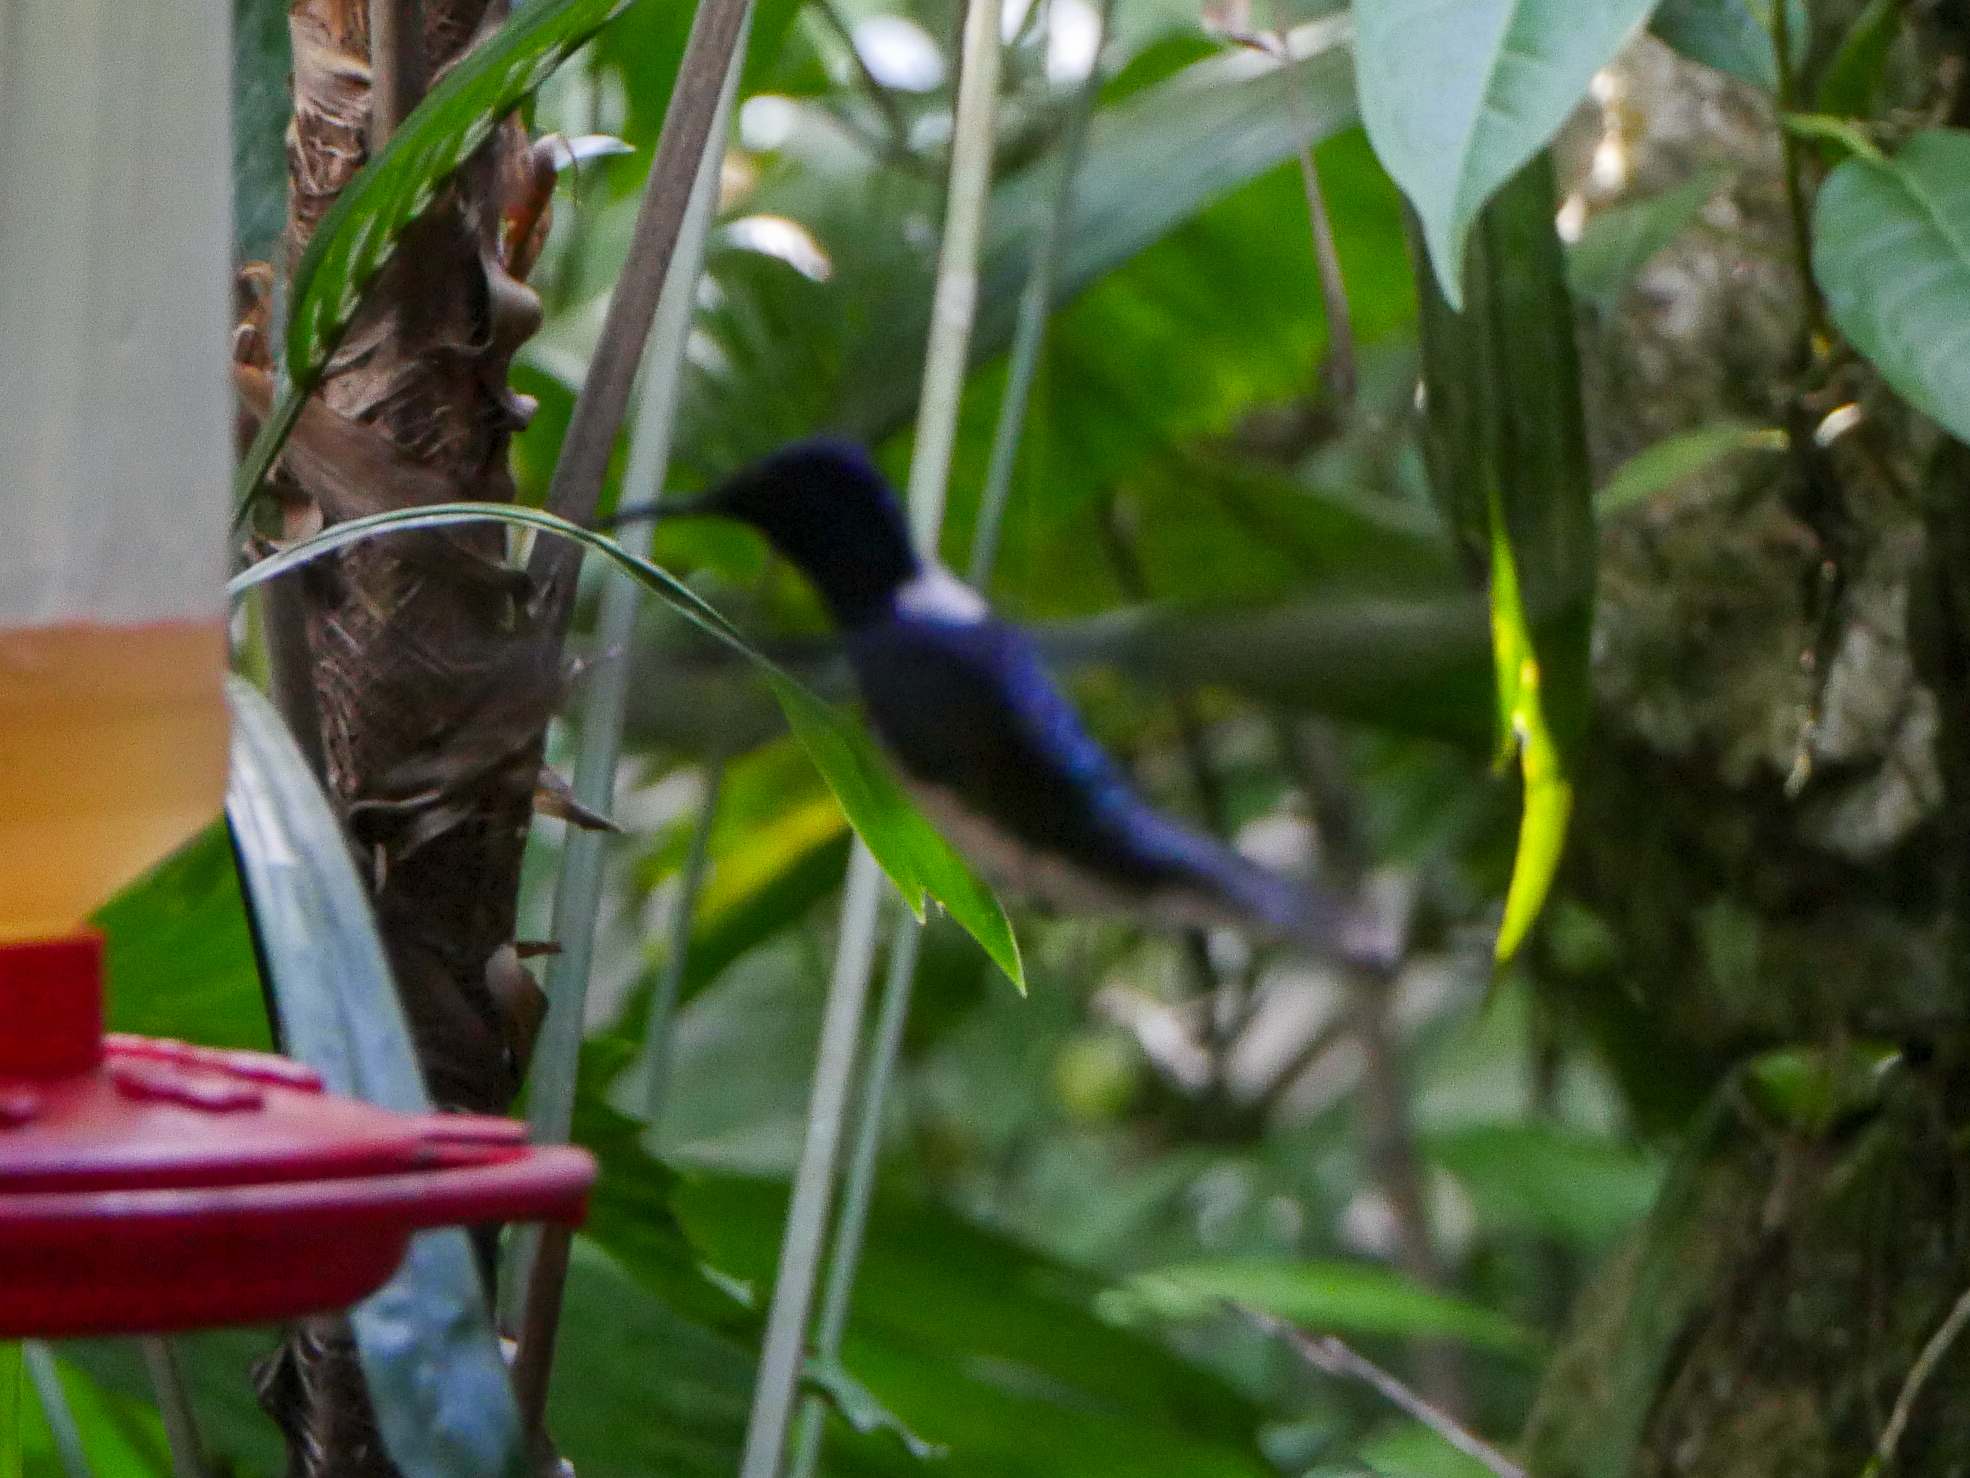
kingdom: Animalia
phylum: Chordata
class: Aves
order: Apodiformes
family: Trochilidae
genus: Florisuga
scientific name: Florisuga mellivora
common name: White-necked jacobin
